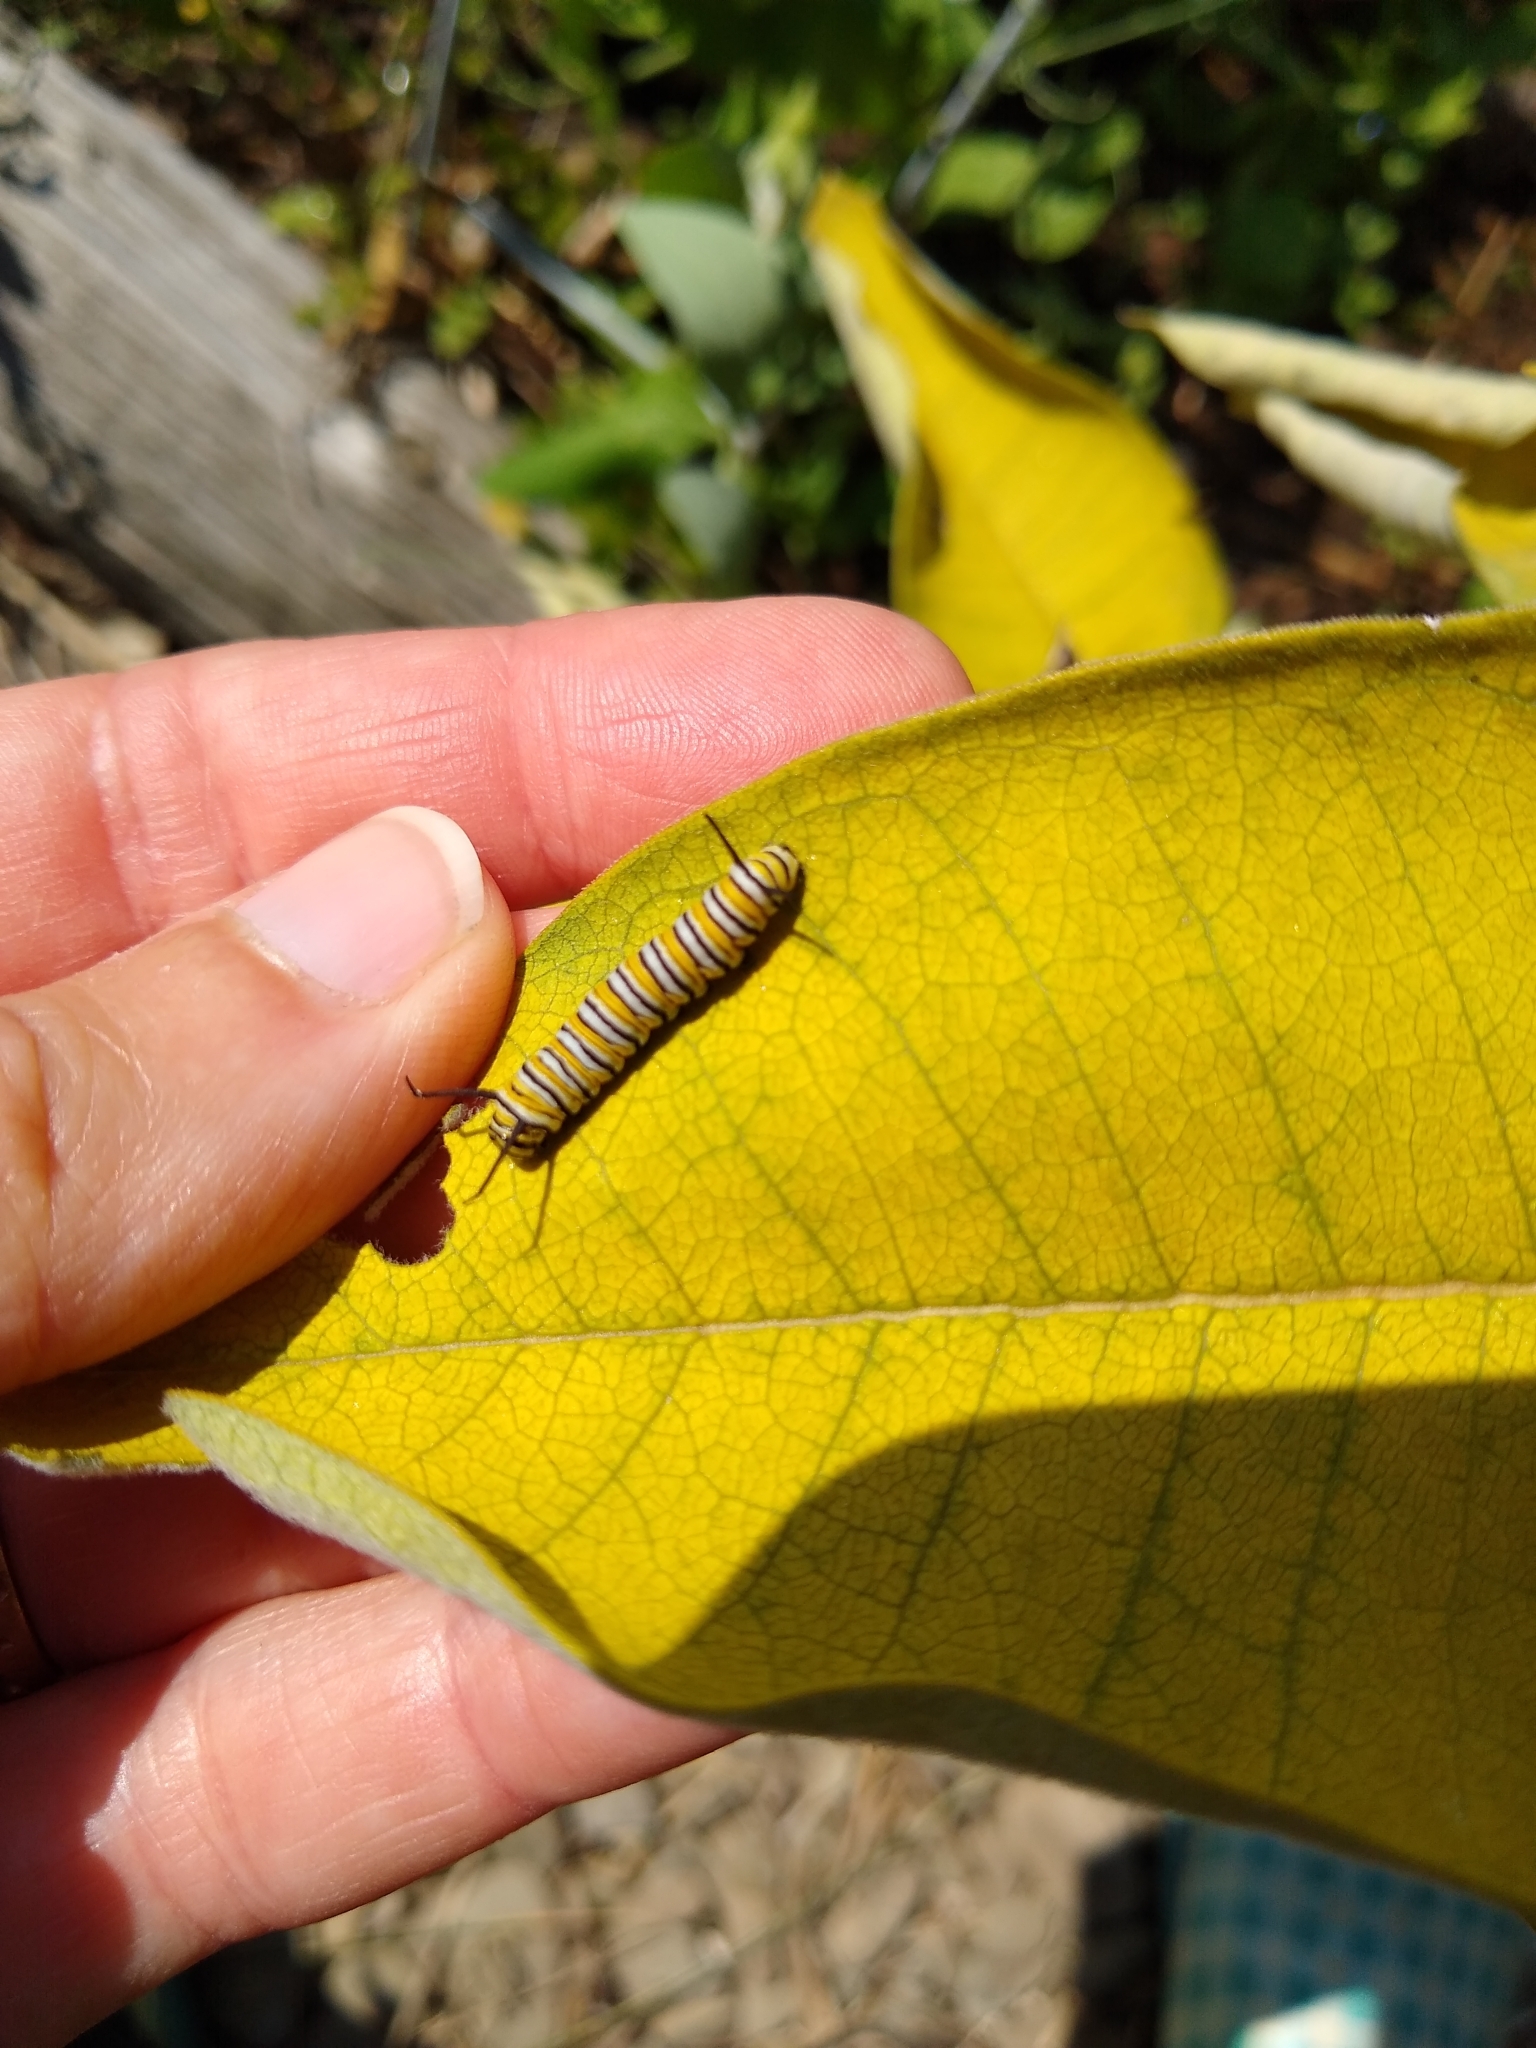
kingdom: Animalia
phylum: Arthropoda
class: Insecta
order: Lepidoptera
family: Nymphalidae
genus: Danaus
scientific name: Danaus plexippus
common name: Monarch
